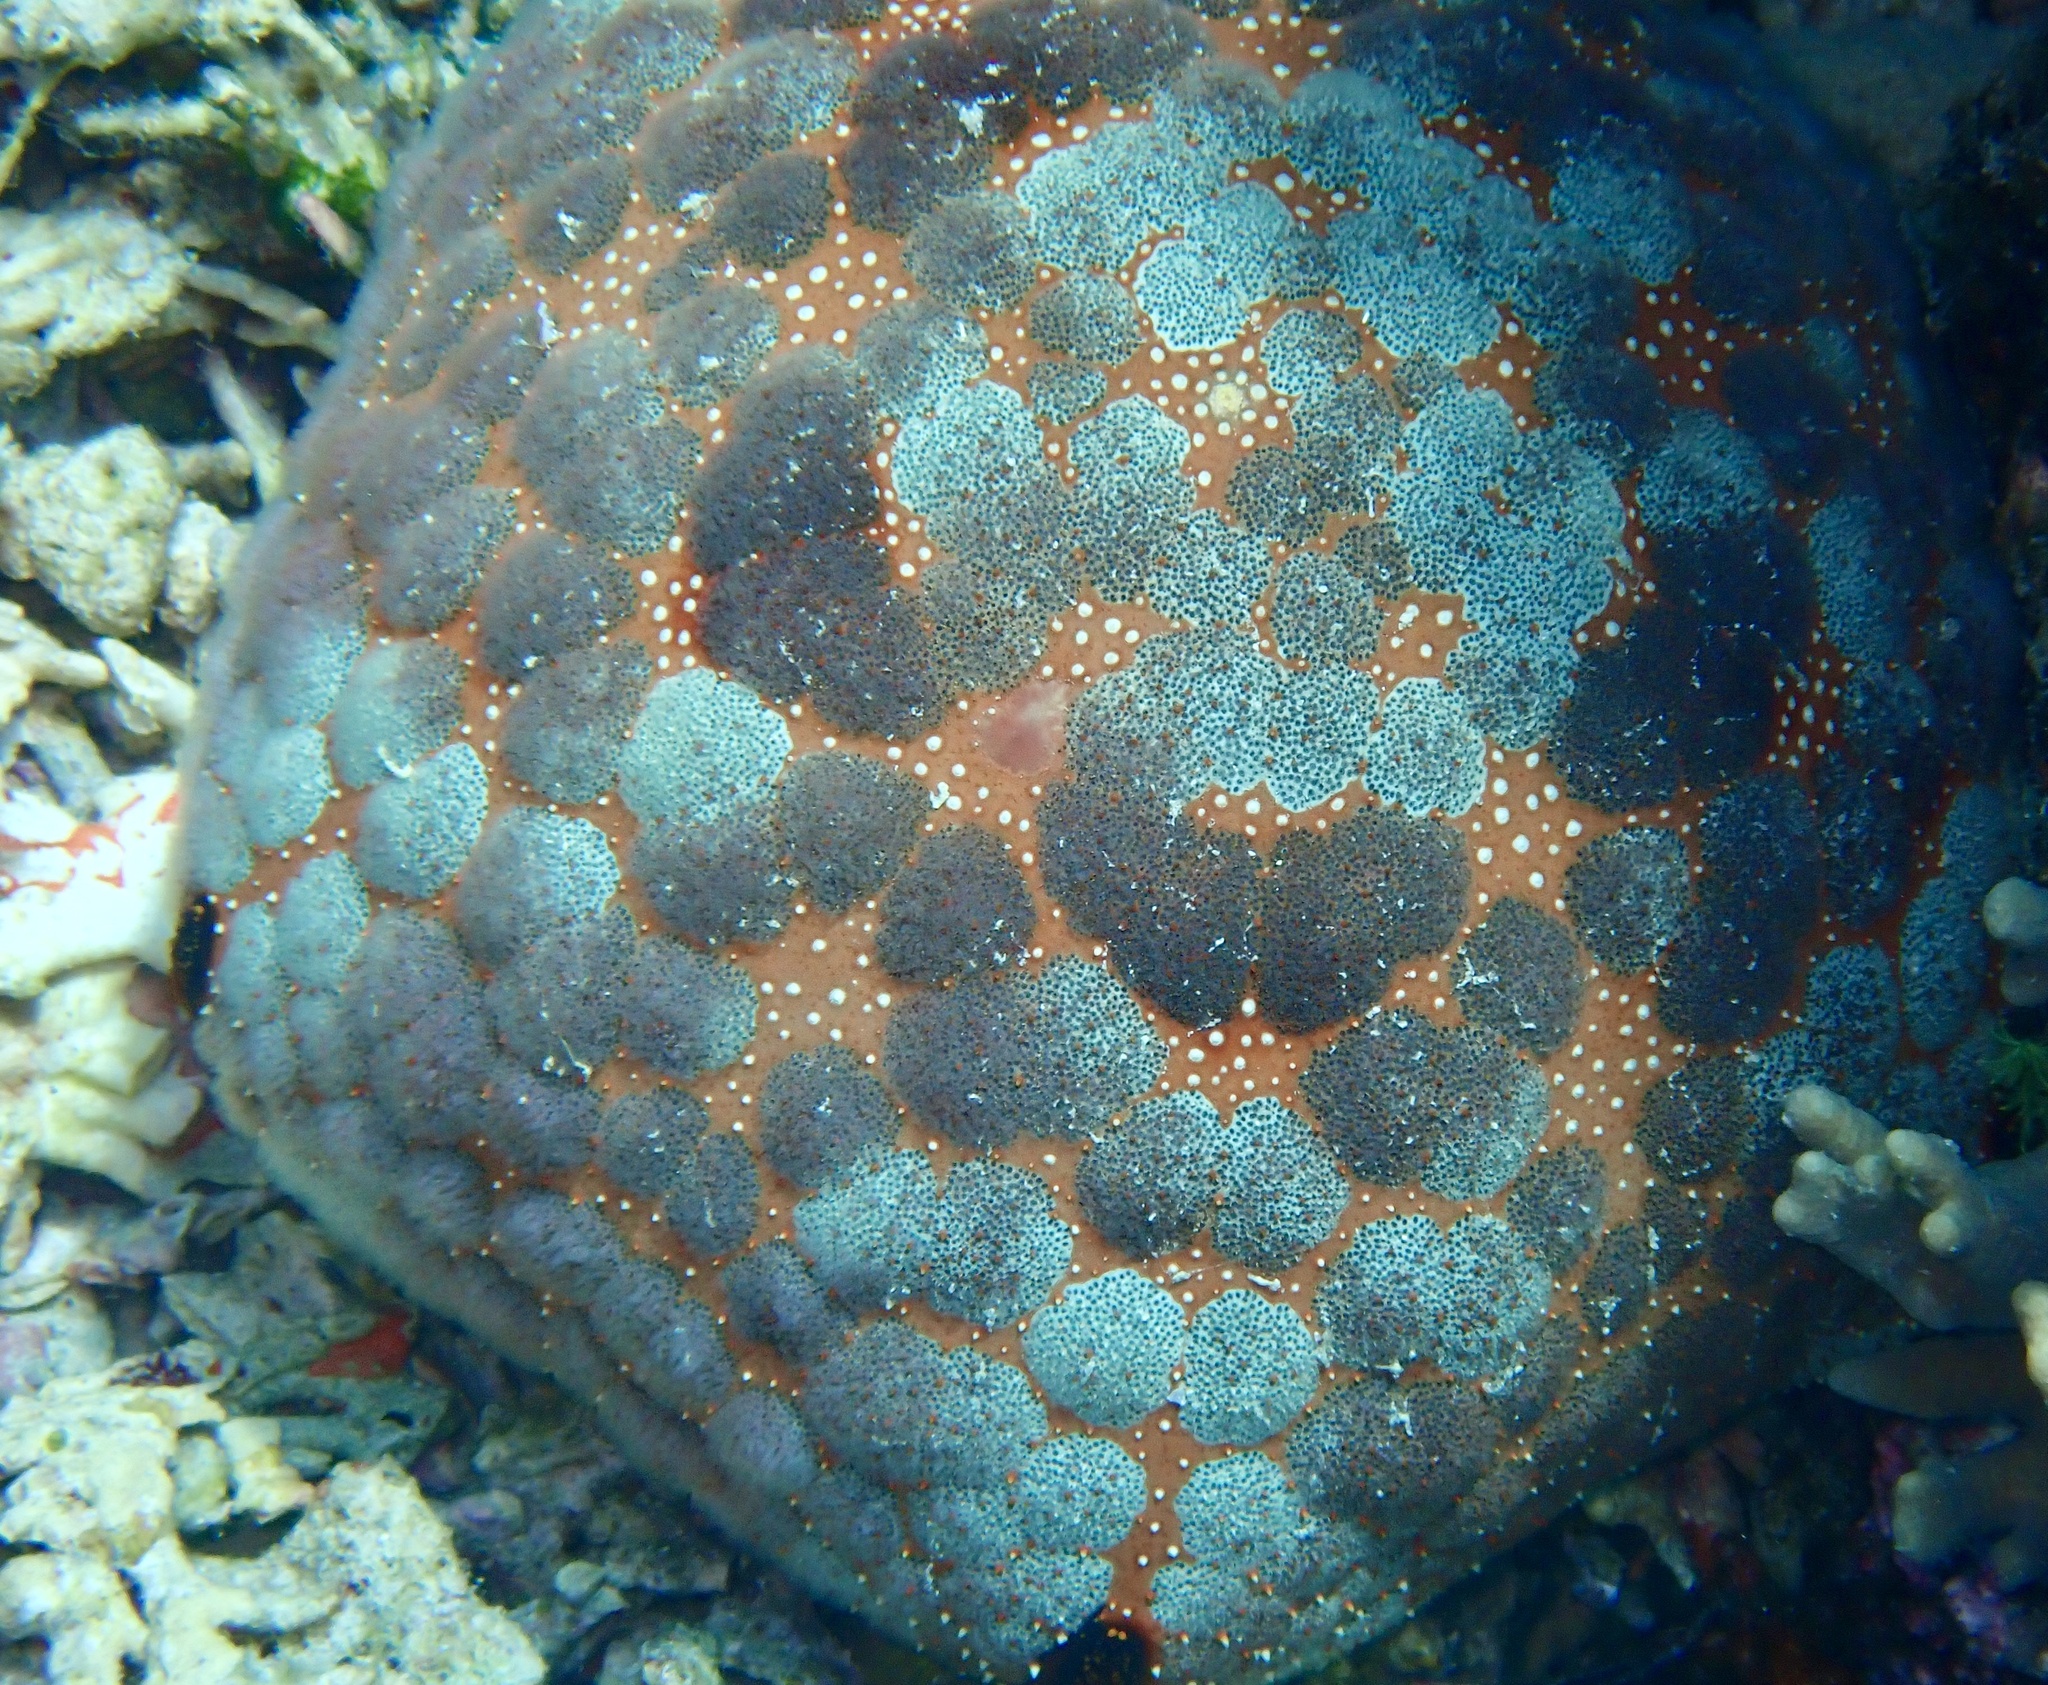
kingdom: Animalia
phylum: Echinodermata
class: Asteroidea
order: Valvatida
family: Oreasteridae
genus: Culcita
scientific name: Culcita novaeguineae
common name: Cushion star
